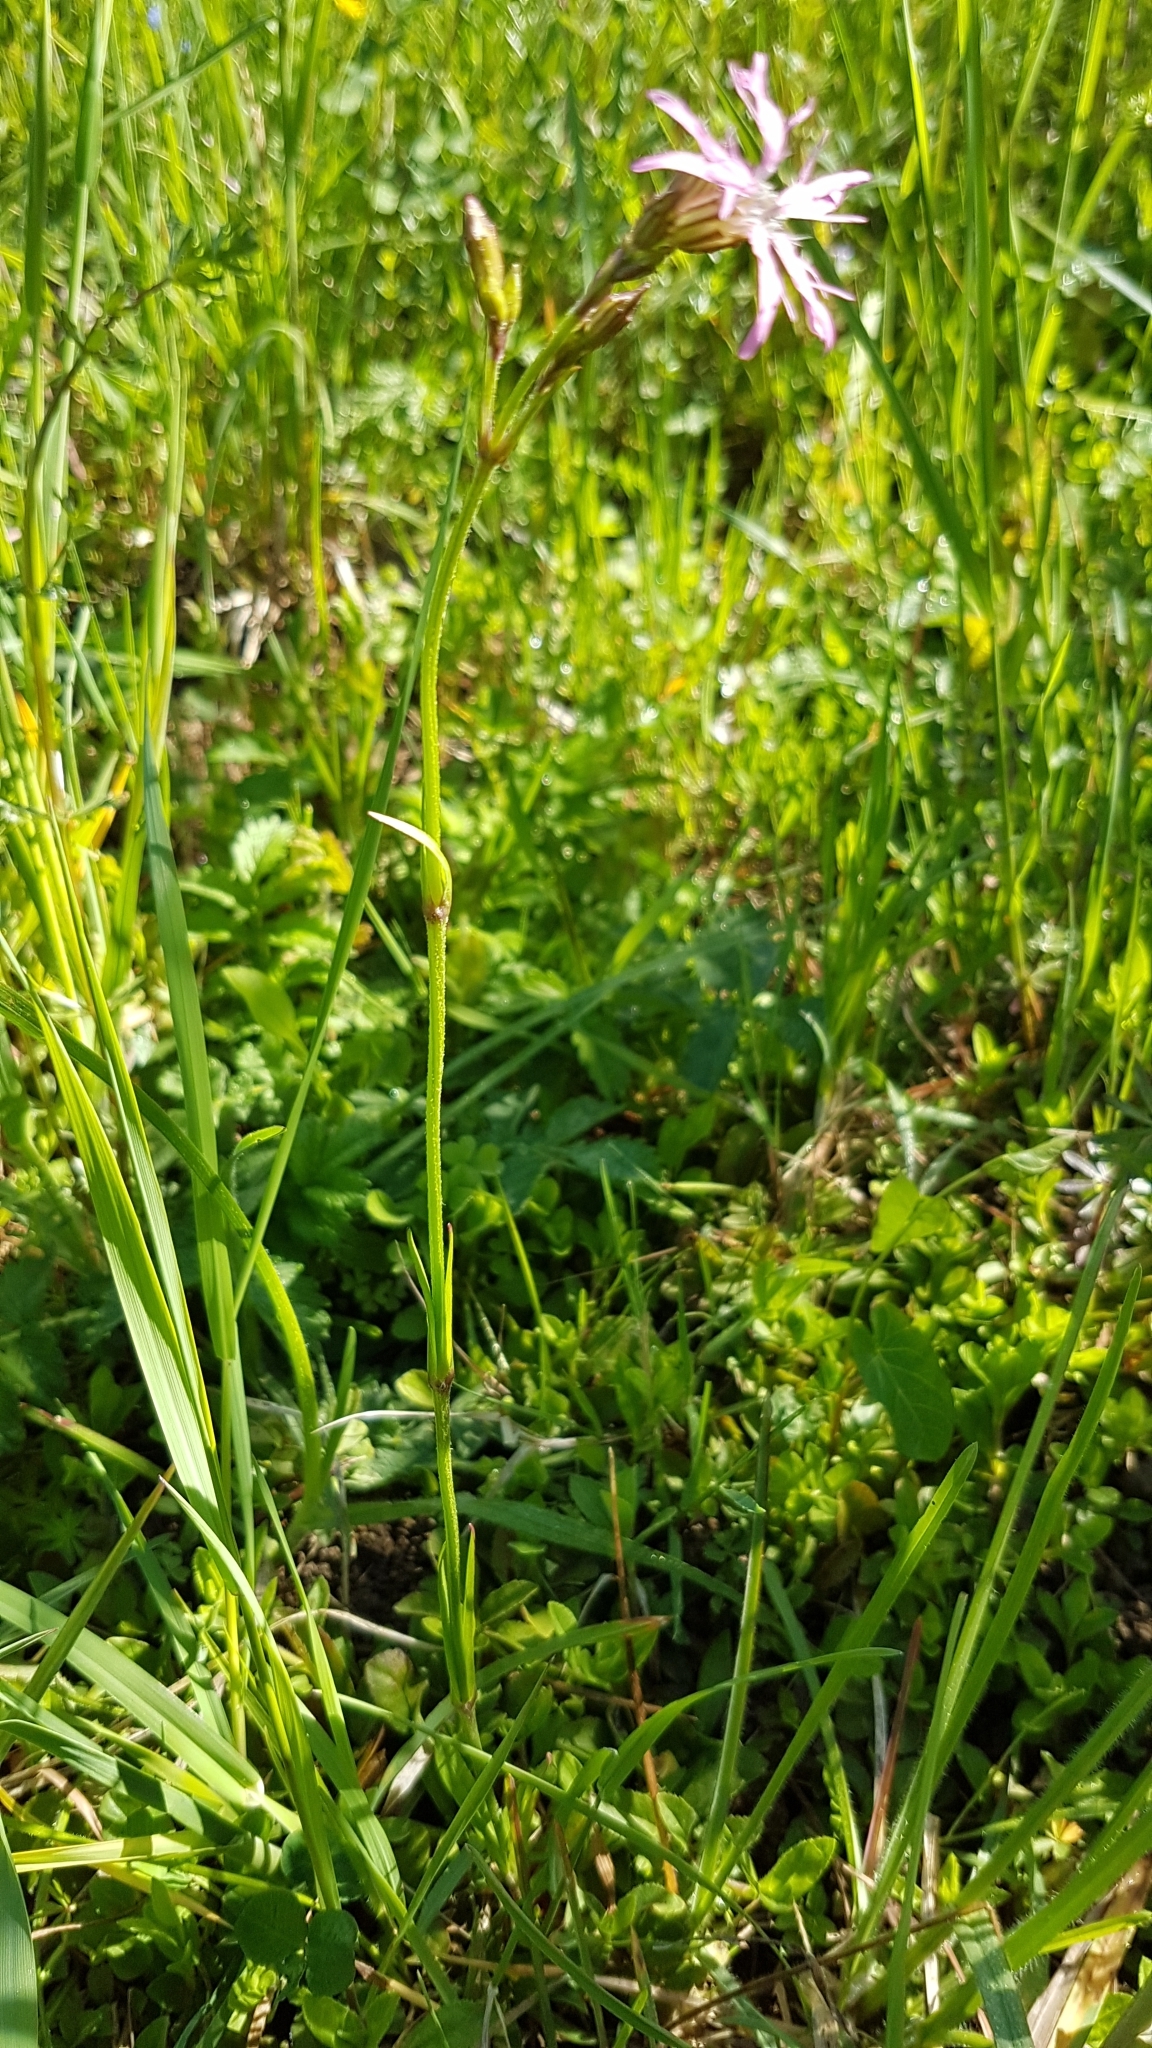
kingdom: Plantae
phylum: Tracheophyta
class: Magnoliopsida
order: Caryophyllales
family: Caryophyllaceae
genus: Silene
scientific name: Silene flos-cuculi
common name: Ragged-robin
